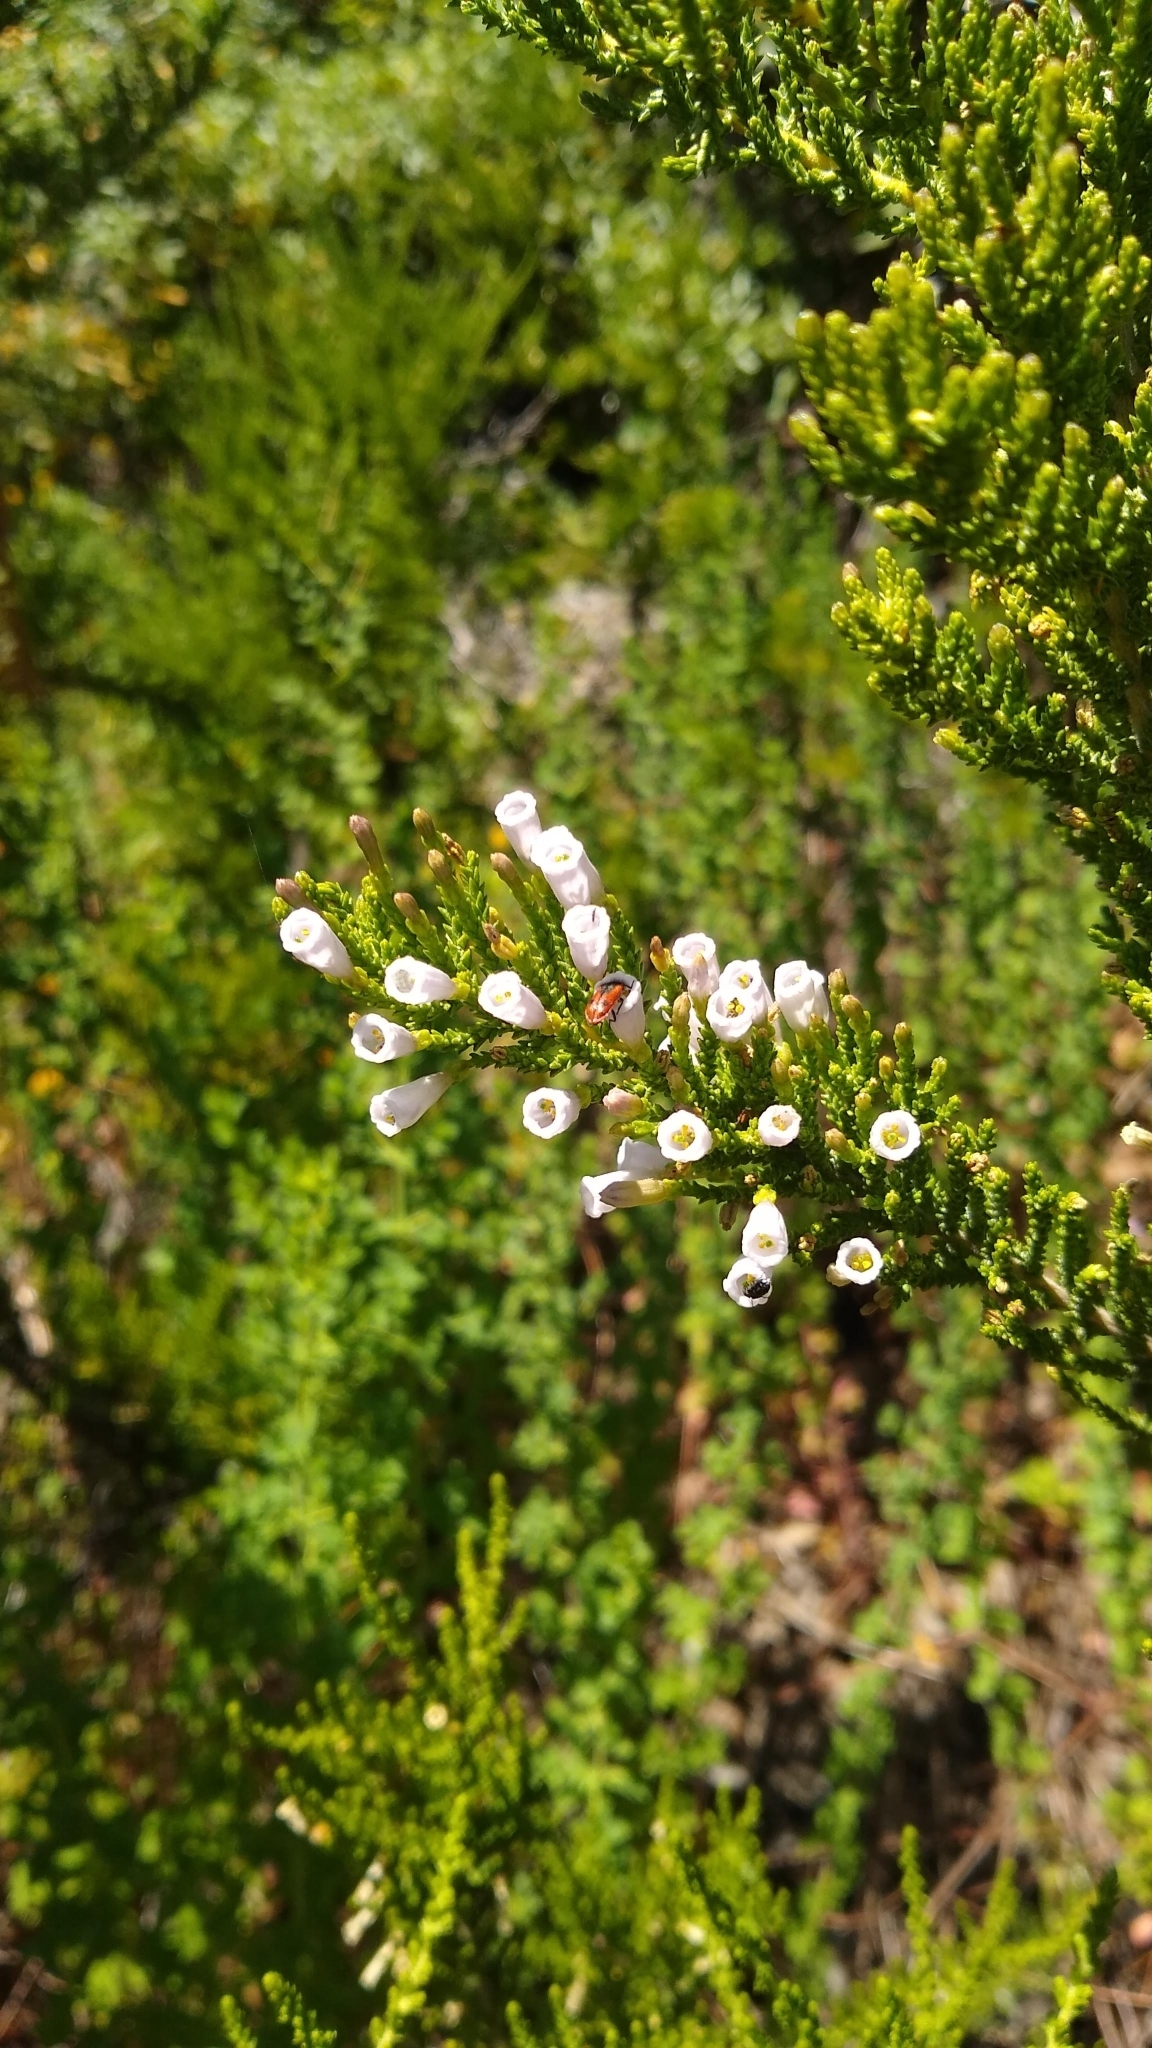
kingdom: Plantae
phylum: Tracheophyta
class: Magnoliopsida
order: Solanales
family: Solanaceae
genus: Fabiana
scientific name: Fabiana imbricata
